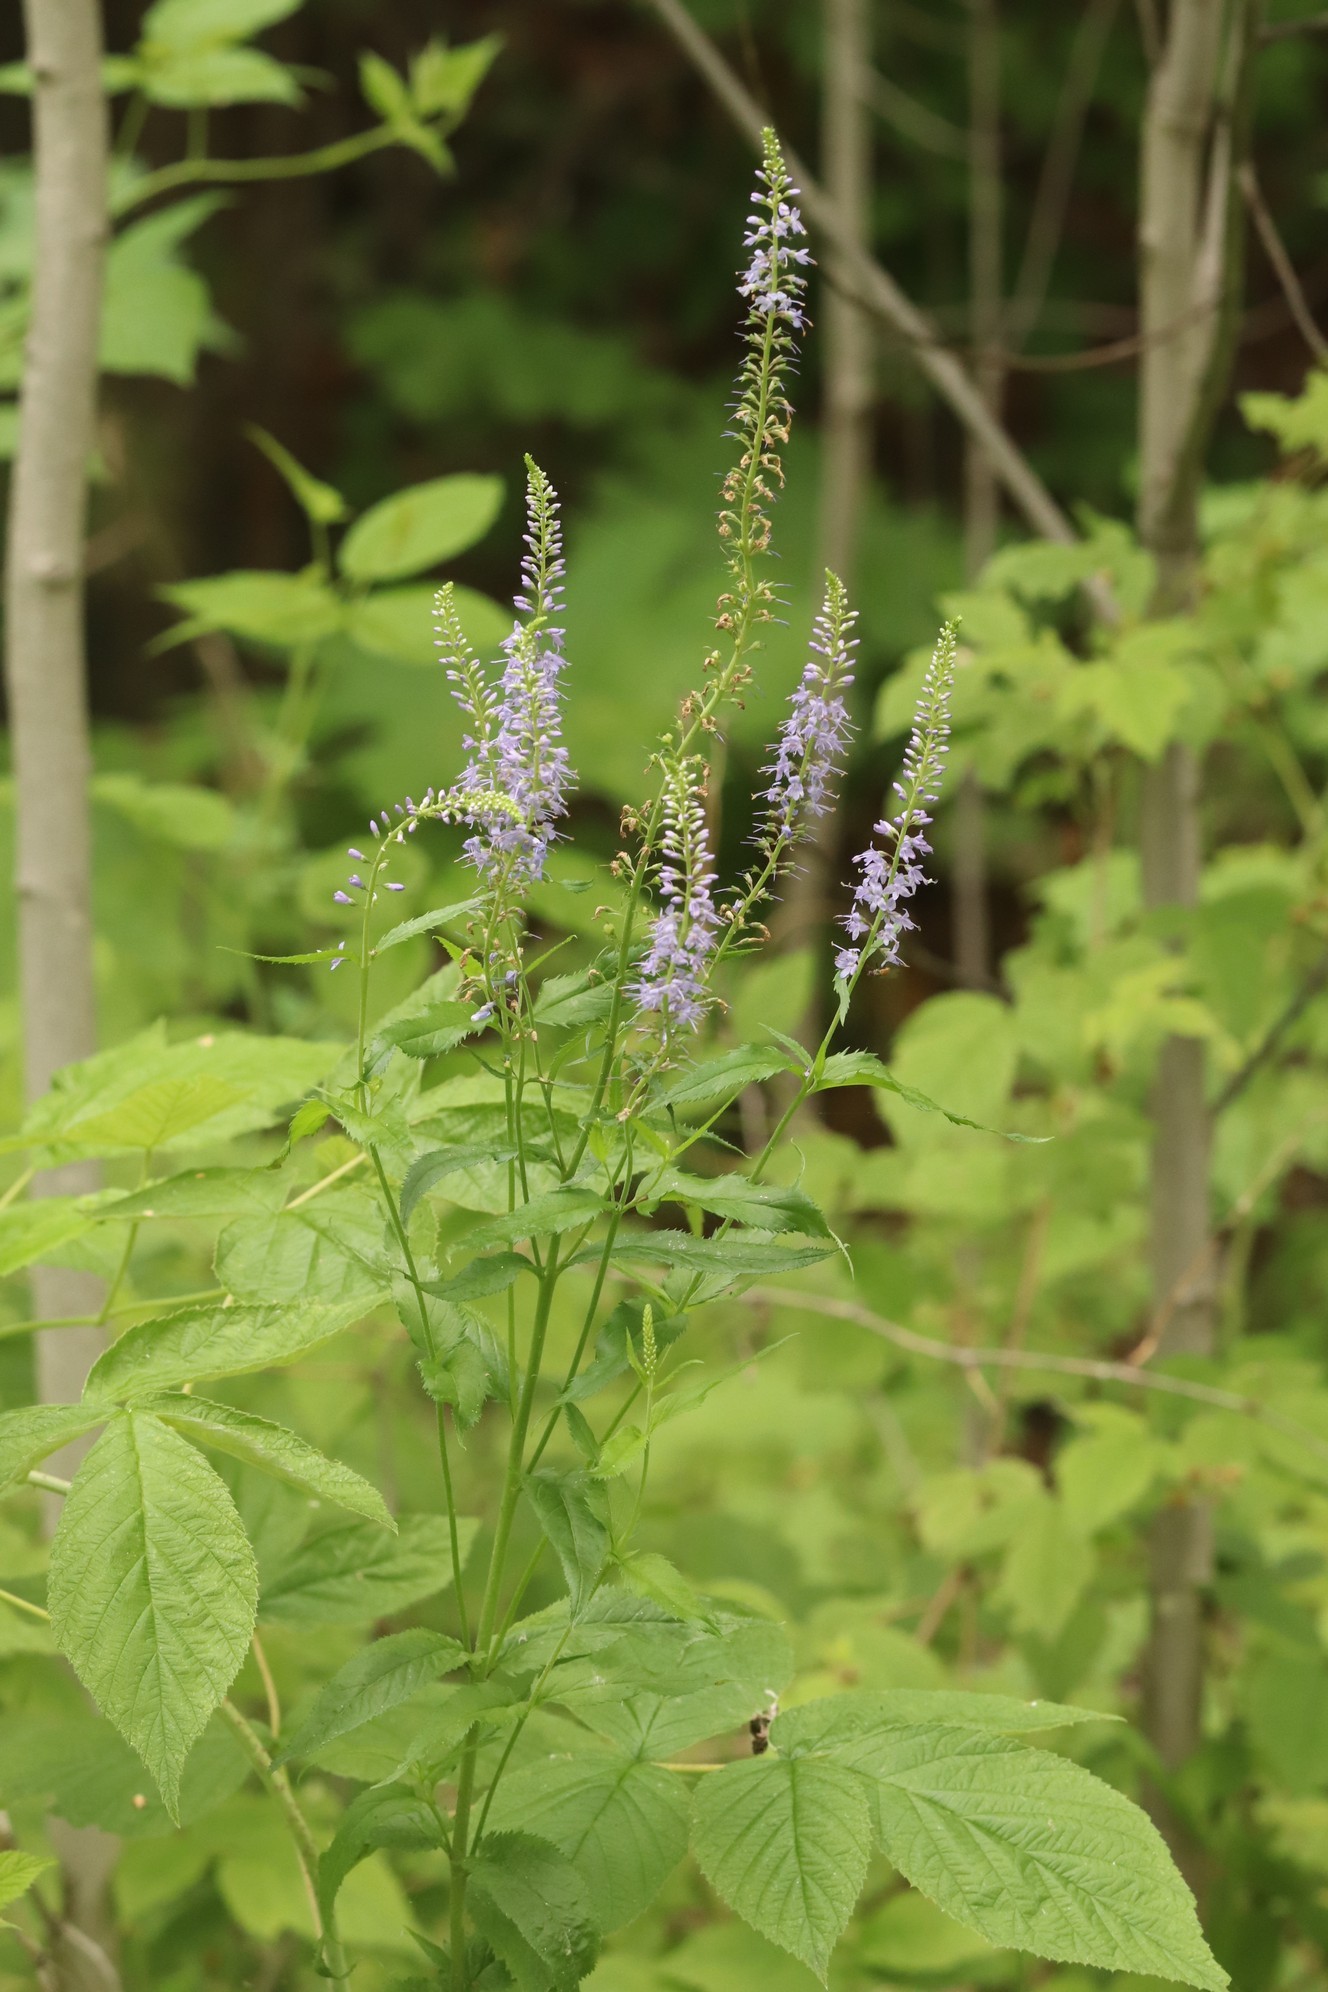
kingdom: Plantae
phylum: Tracheophyta
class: Magnoliopsida
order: Lamiales
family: Plantaginaceae
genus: Veronica
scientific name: Veronica longifolia
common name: Garden speedwell
